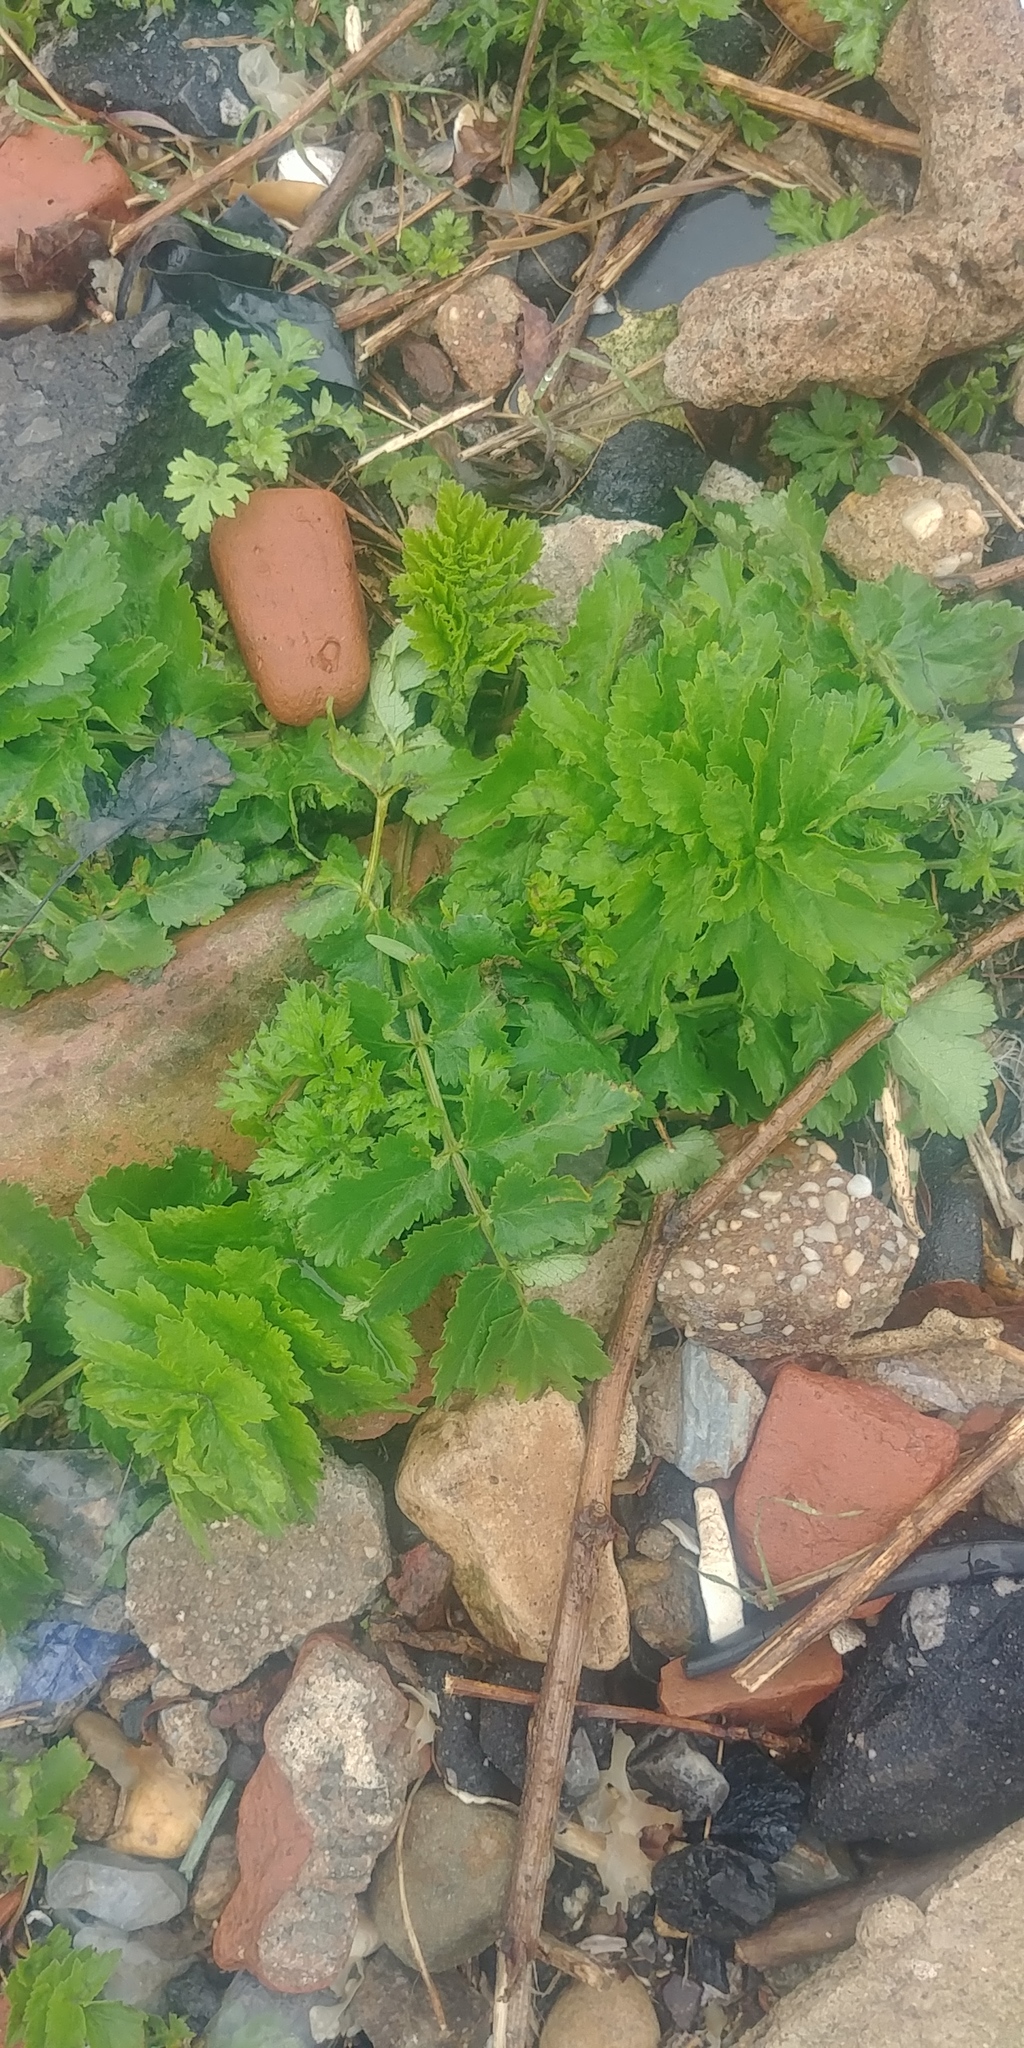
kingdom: Plantae
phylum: Tracheophyta
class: Magnoliopsida
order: Apiales
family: Apiaceae
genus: Pastinaca
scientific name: Pastinaca sativa
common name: Wild parsnip
